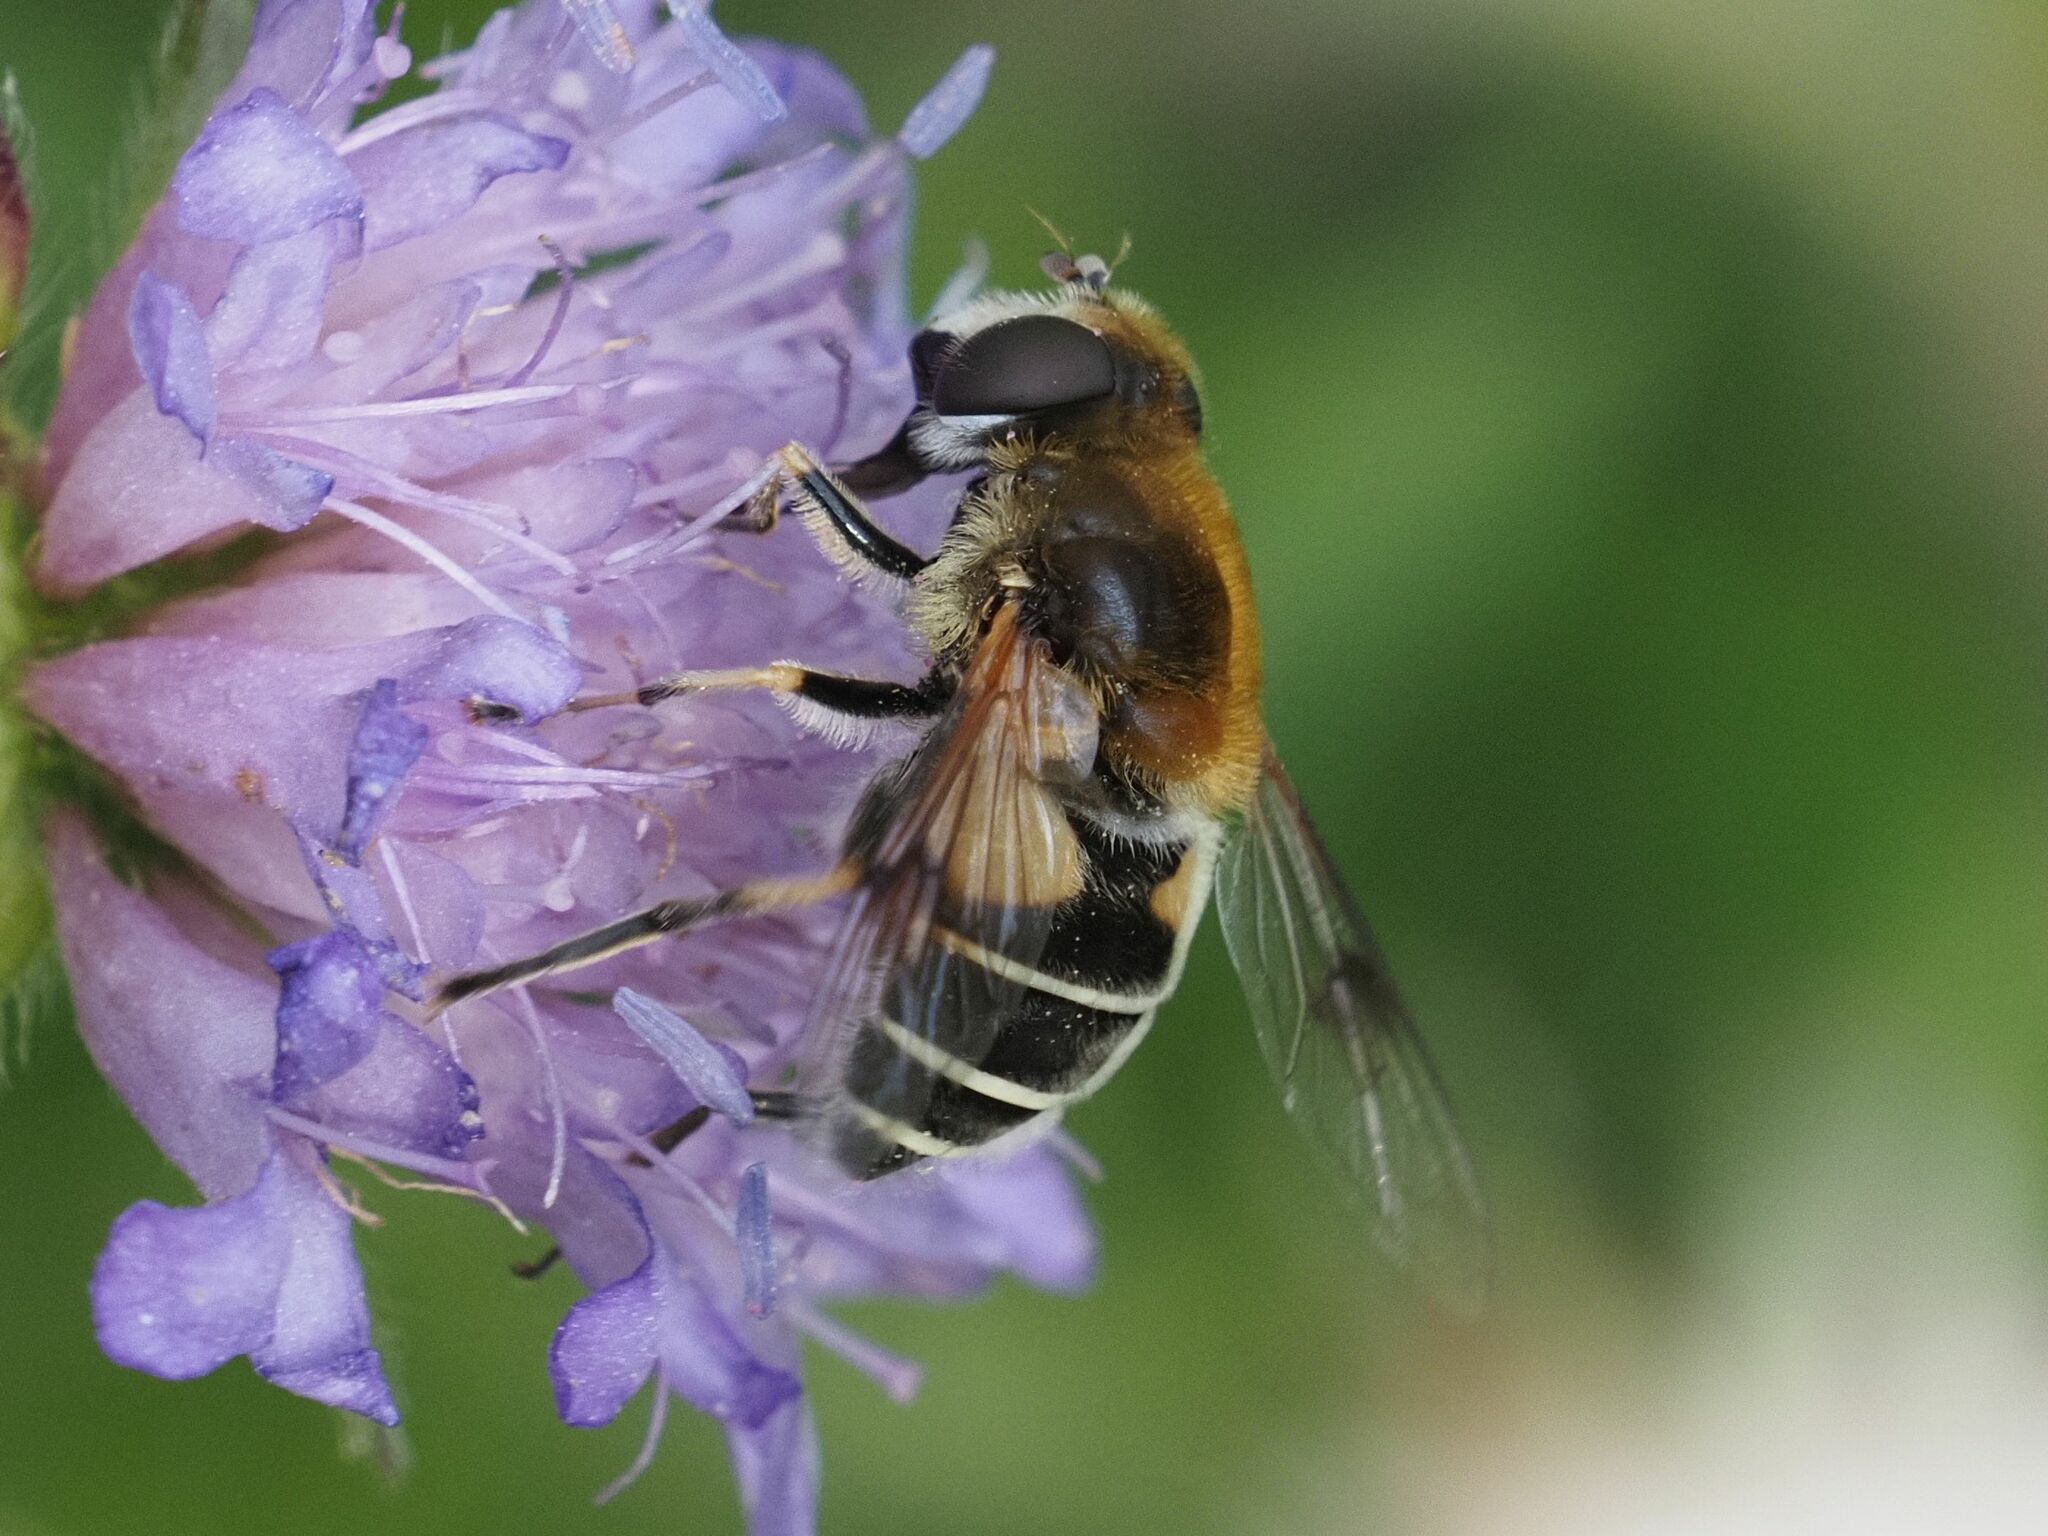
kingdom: Animalia
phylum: Arthropoda
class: Insecta
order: Diptera
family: Syrphidae
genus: Eristalis
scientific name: Eristalis jugorum
